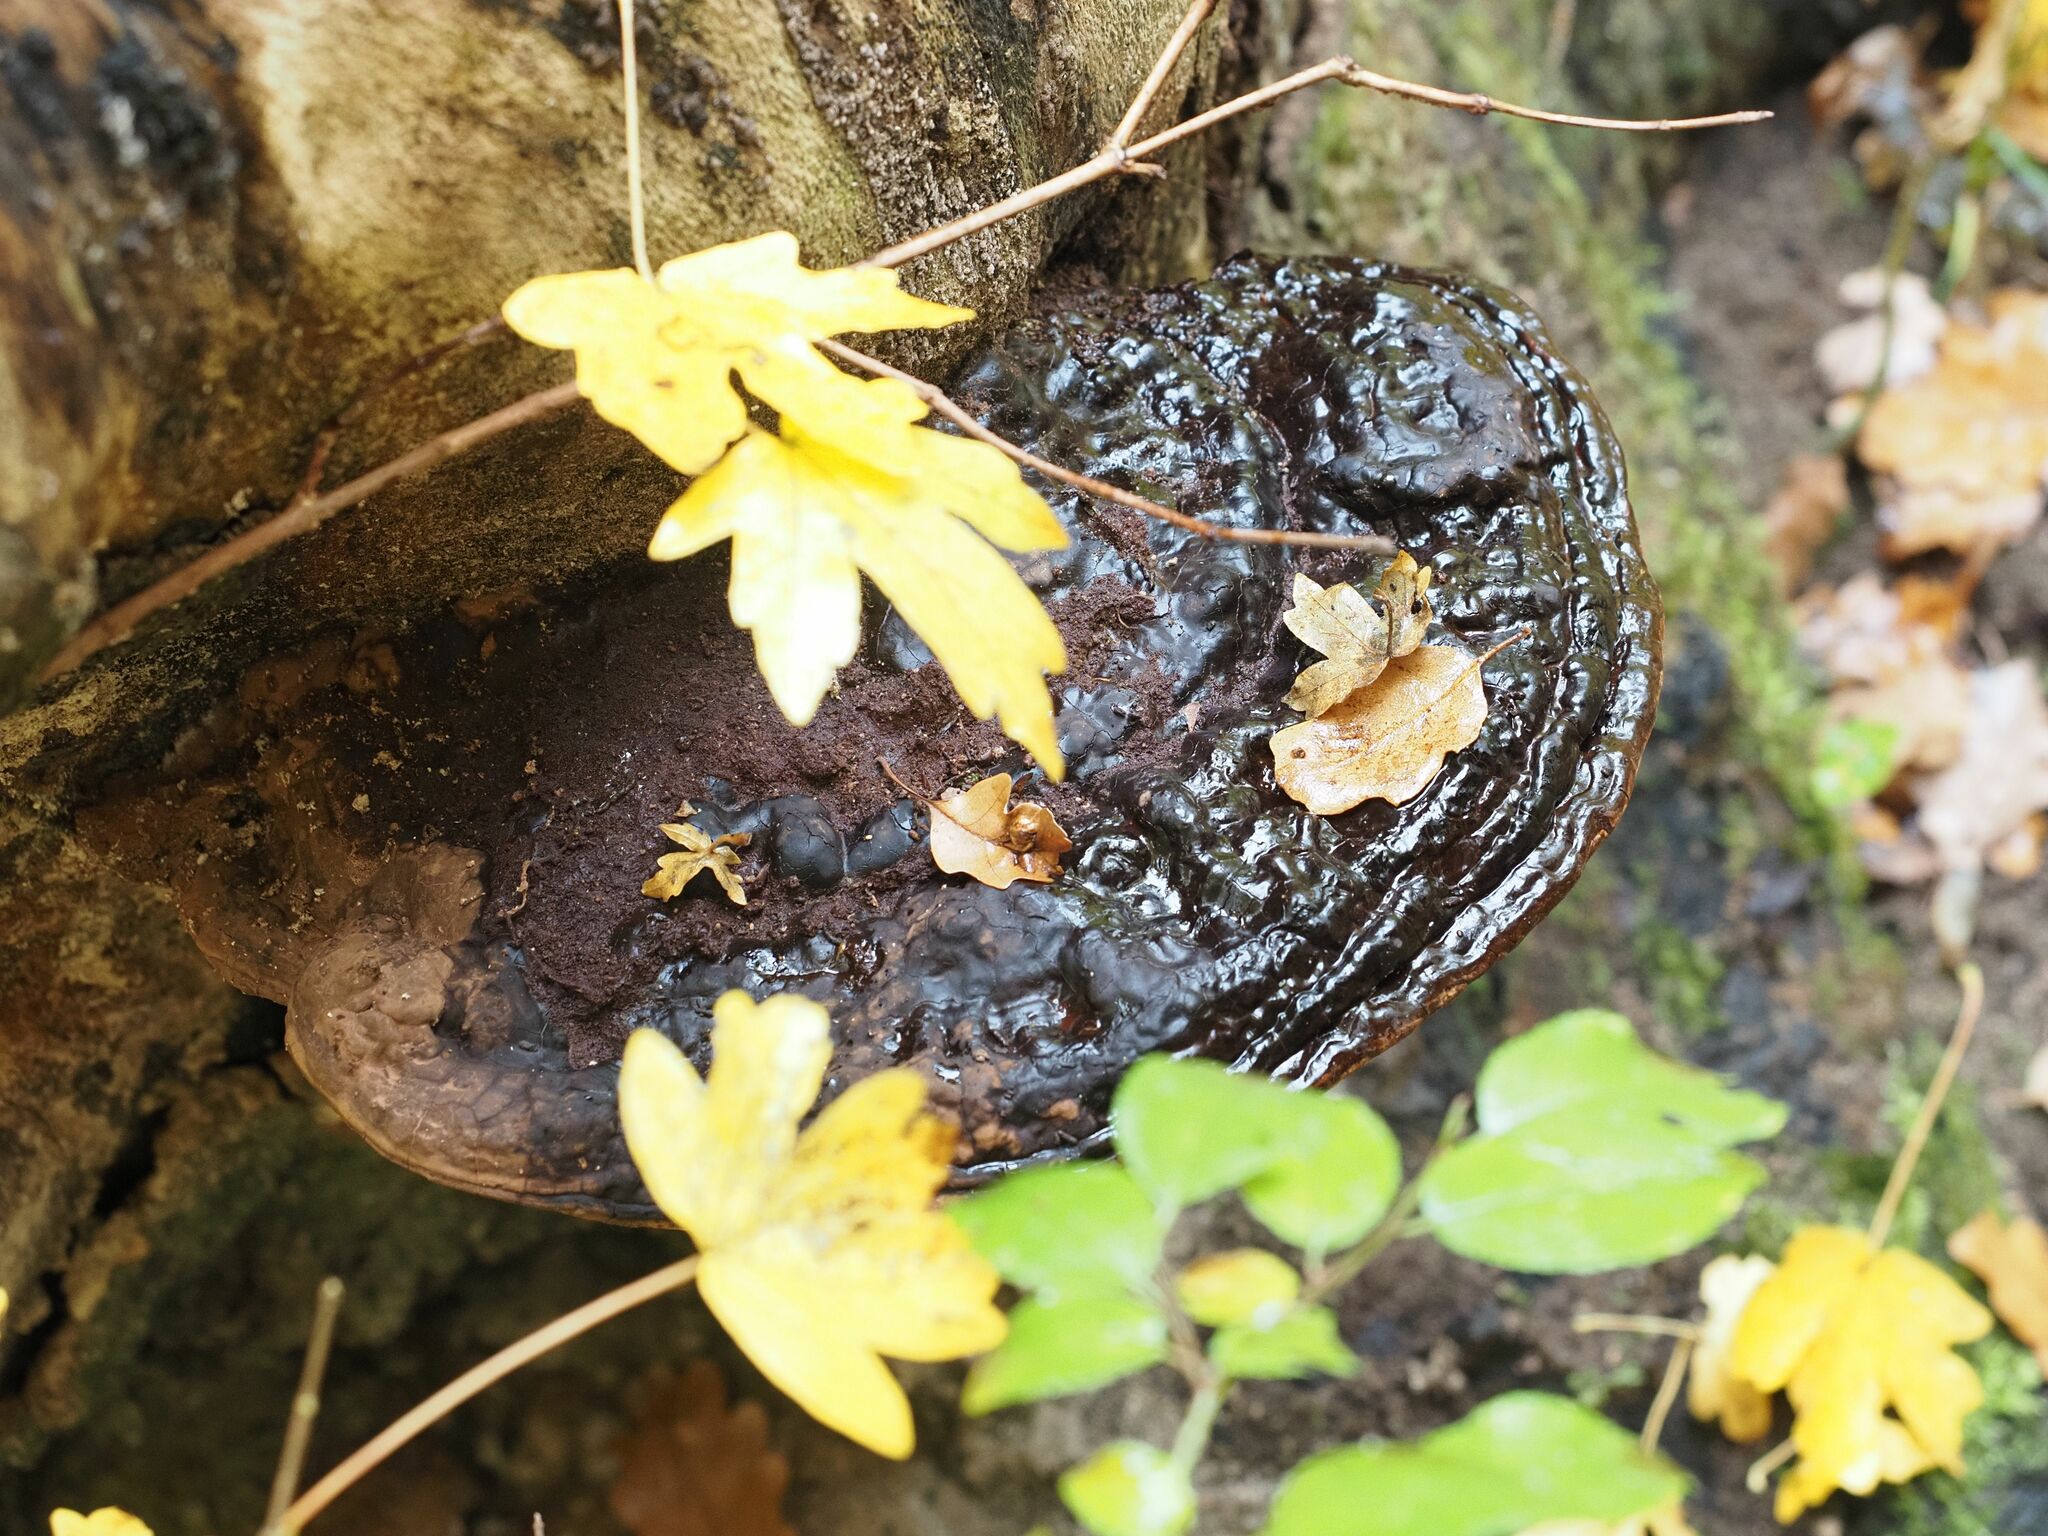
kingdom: Fungi
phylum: Basidiomycota
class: Agaricomycetes
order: Polyporales
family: Polyporaceae
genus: Ganoderma
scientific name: Ganoderma applanatum
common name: Artist's bracket
